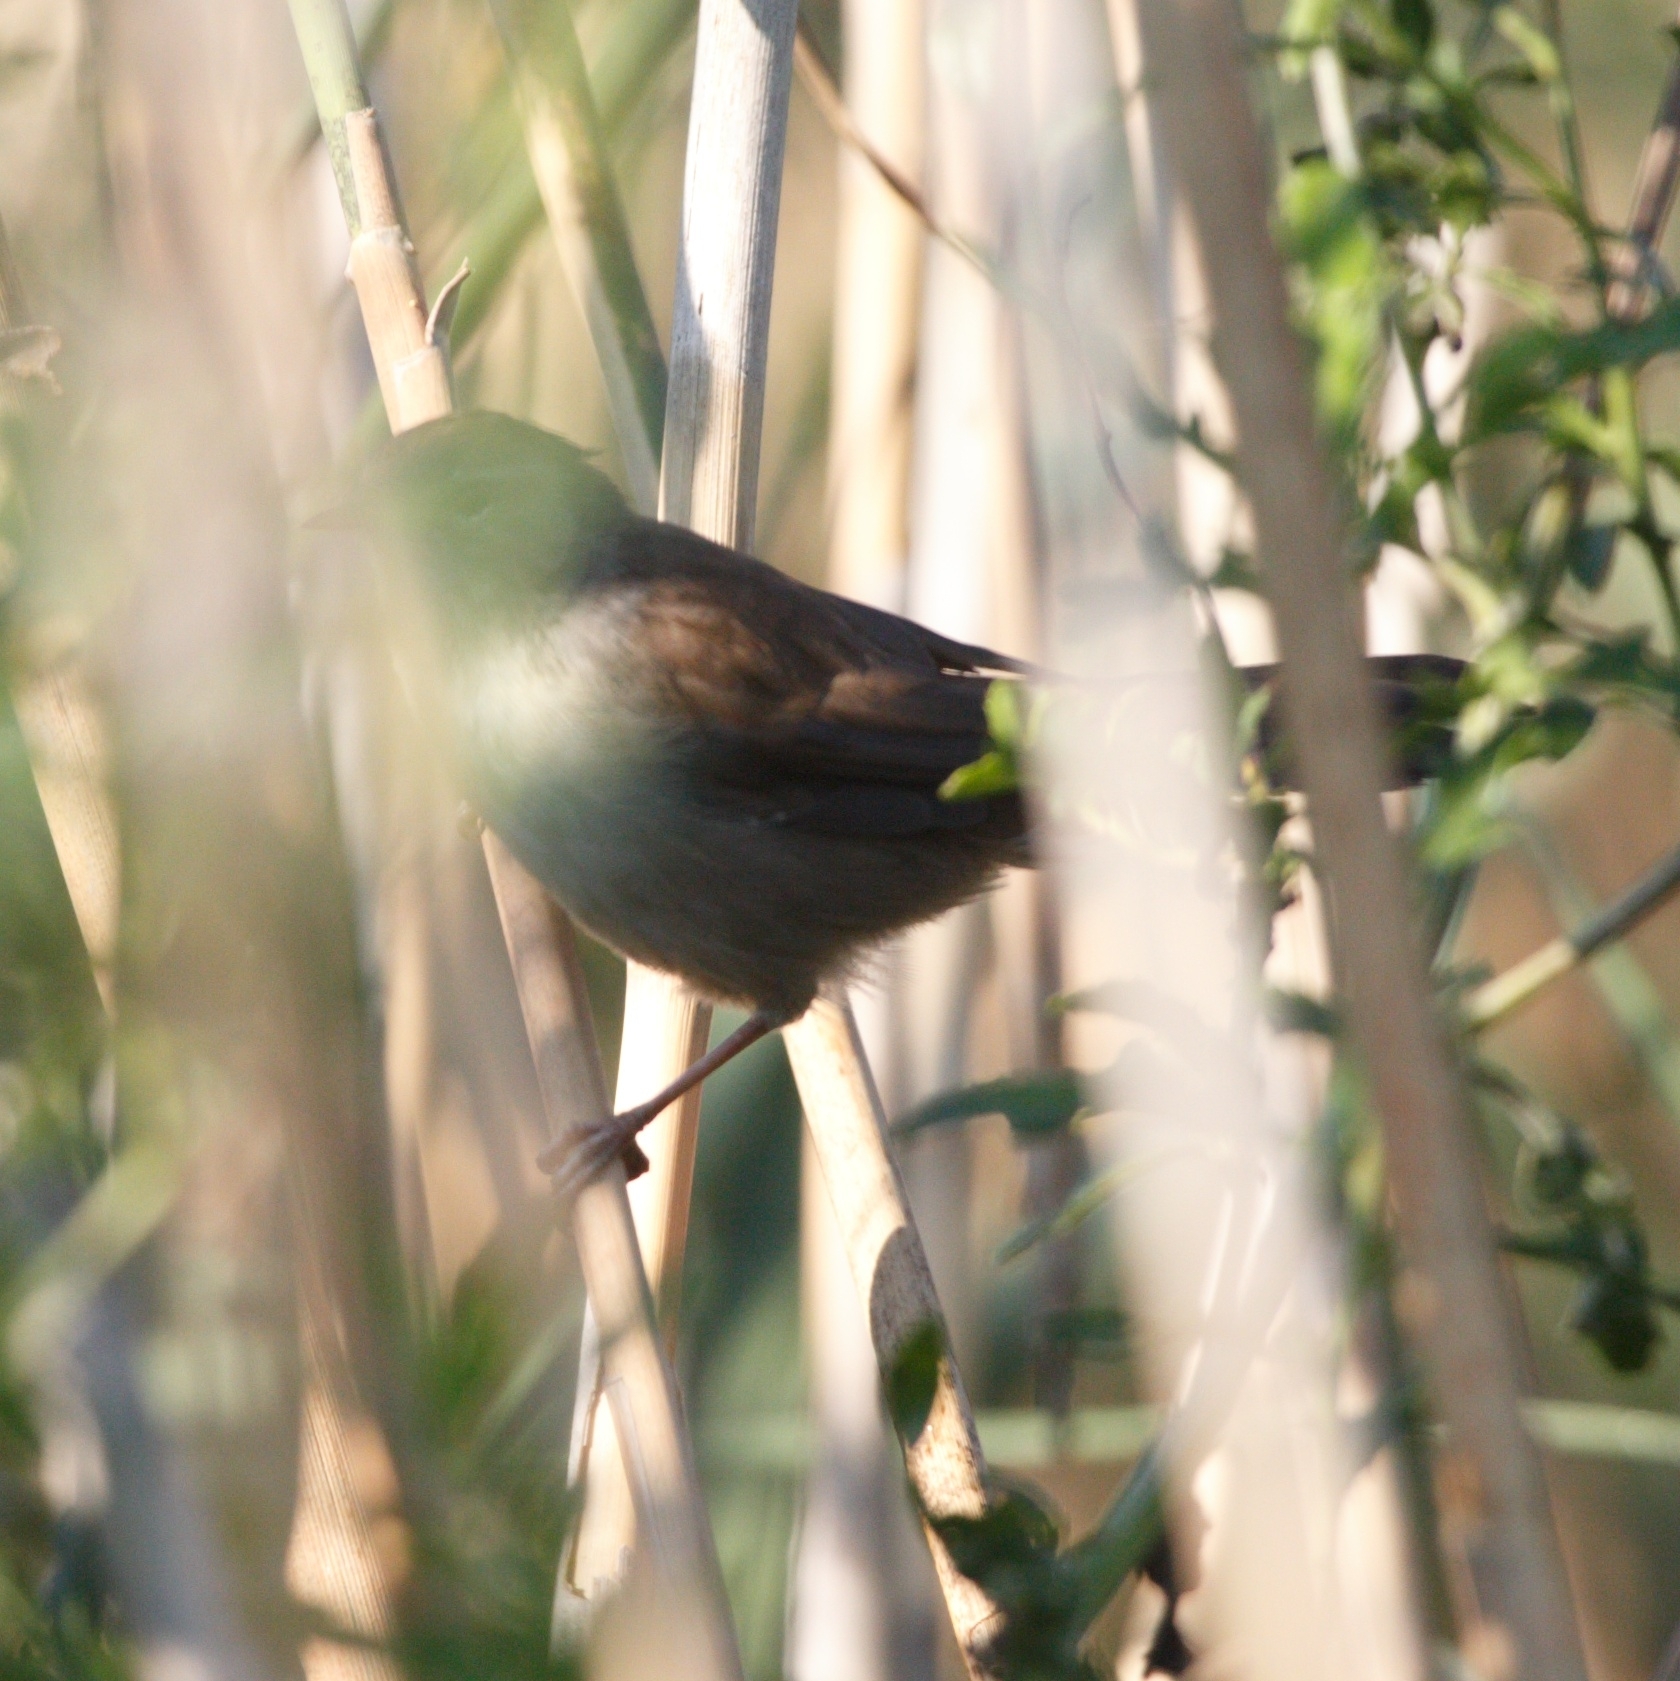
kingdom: Animalia
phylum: Chordata
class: Aves
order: Passeriformes
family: Cettiidae
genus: Cettia
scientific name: Cettia cetti
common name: Cetti's warbler
